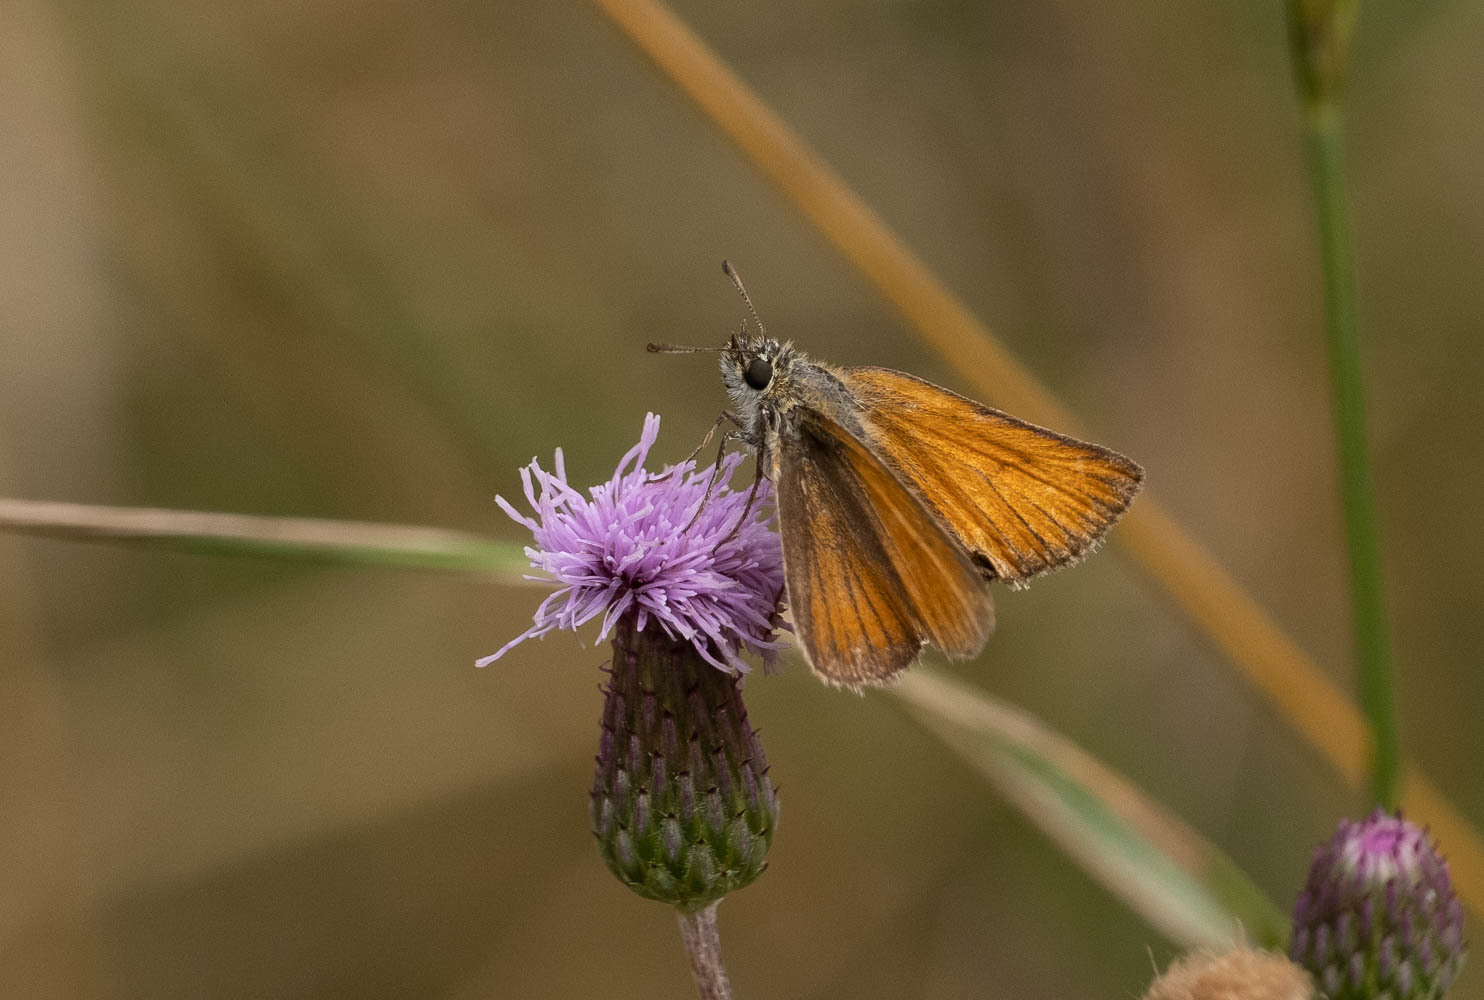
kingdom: Animalia
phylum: Arthropoda
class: Insecta
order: Lepidoptera
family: Hesperiidae
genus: Thymelicus
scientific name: Thymelicus lineola
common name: Essex skipper
